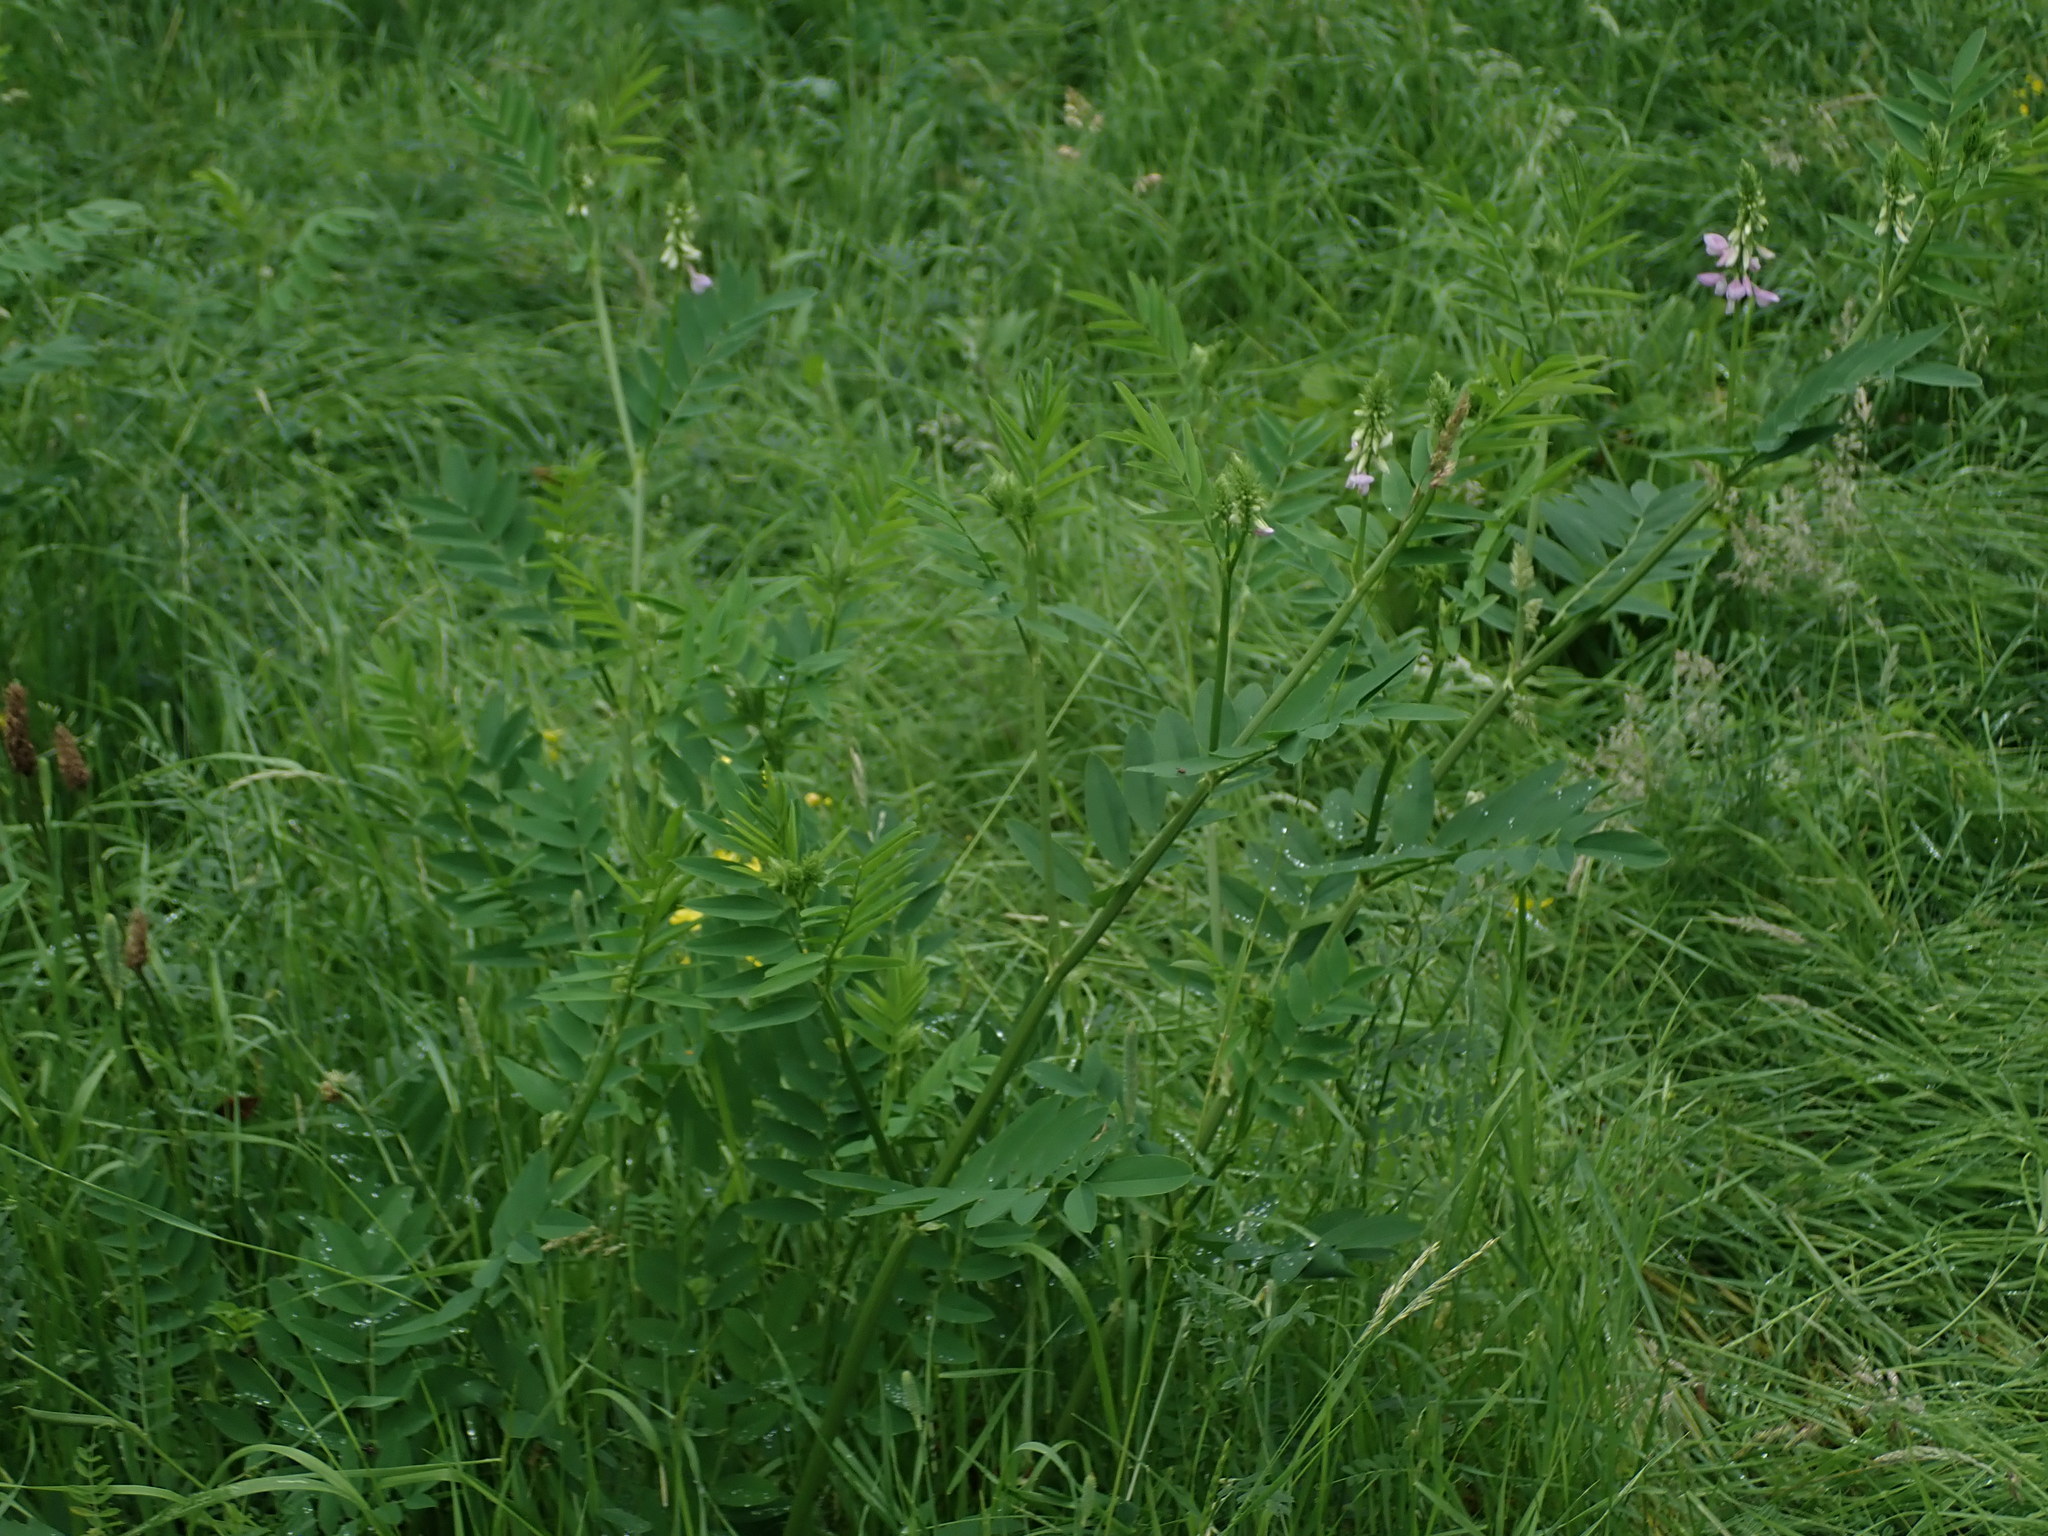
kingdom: Plantae
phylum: Tracheophyta
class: Magnoliopsida
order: Fabales
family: Fabaceae
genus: Galega
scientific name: Galega officinalis
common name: Goat's-rue
